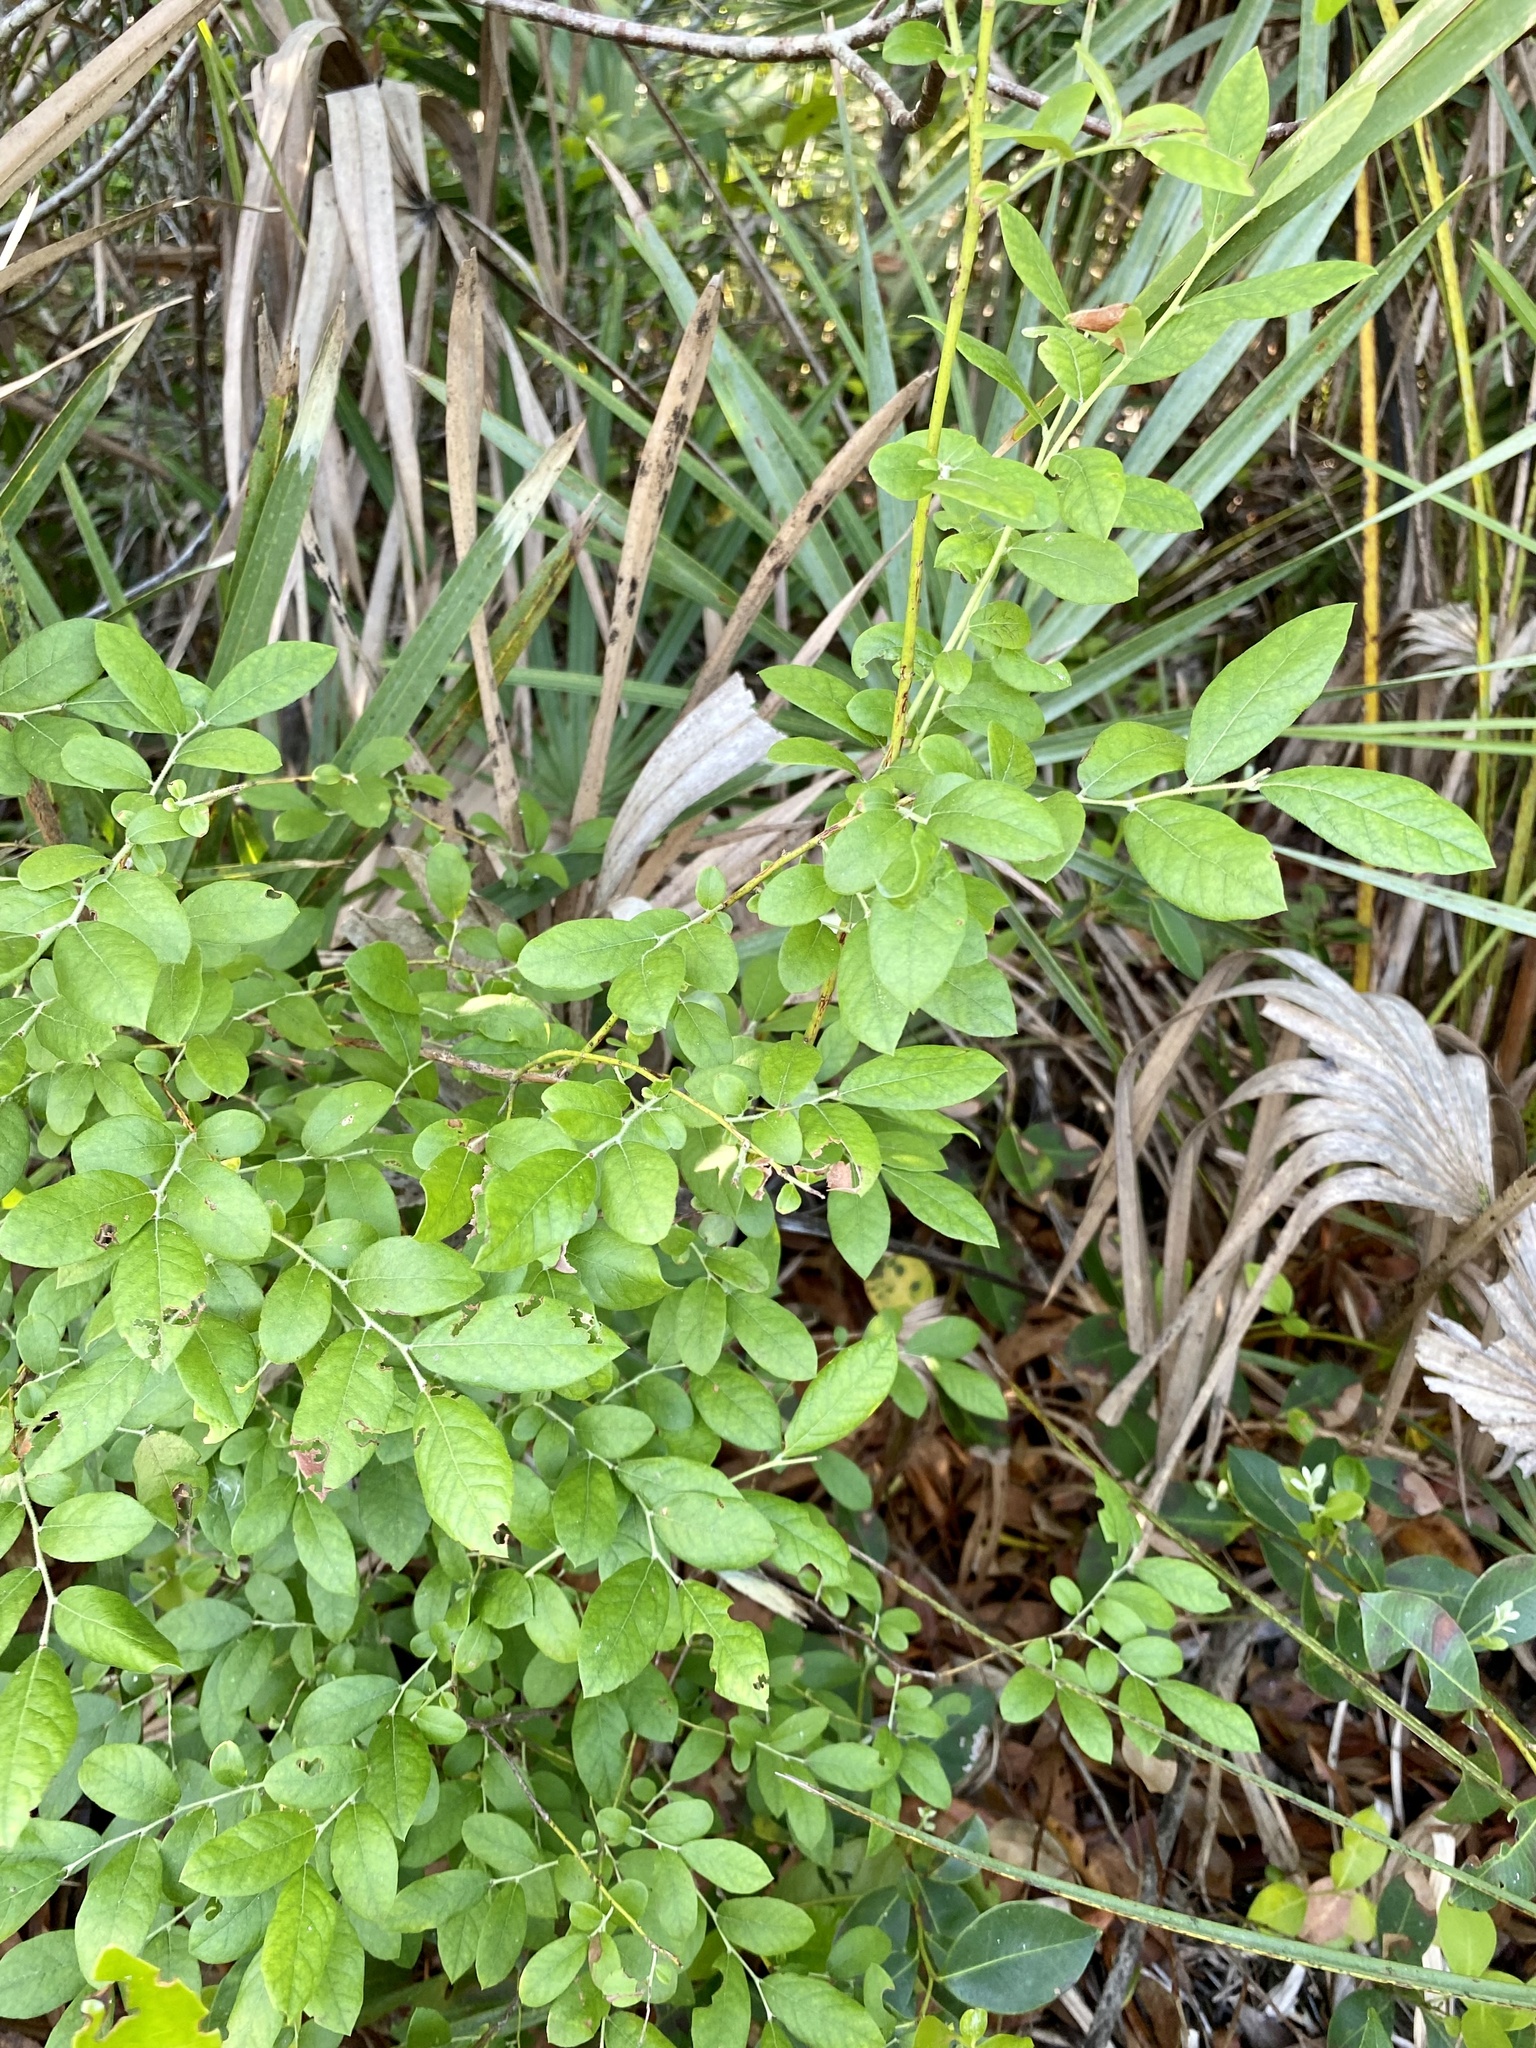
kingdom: Plantae
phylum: Tracheophyta
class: Magnoliopsida
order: Ericales
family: Ericaceae
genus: Vaccinium
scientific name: Vaccinium stamineum
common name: Deerberry
